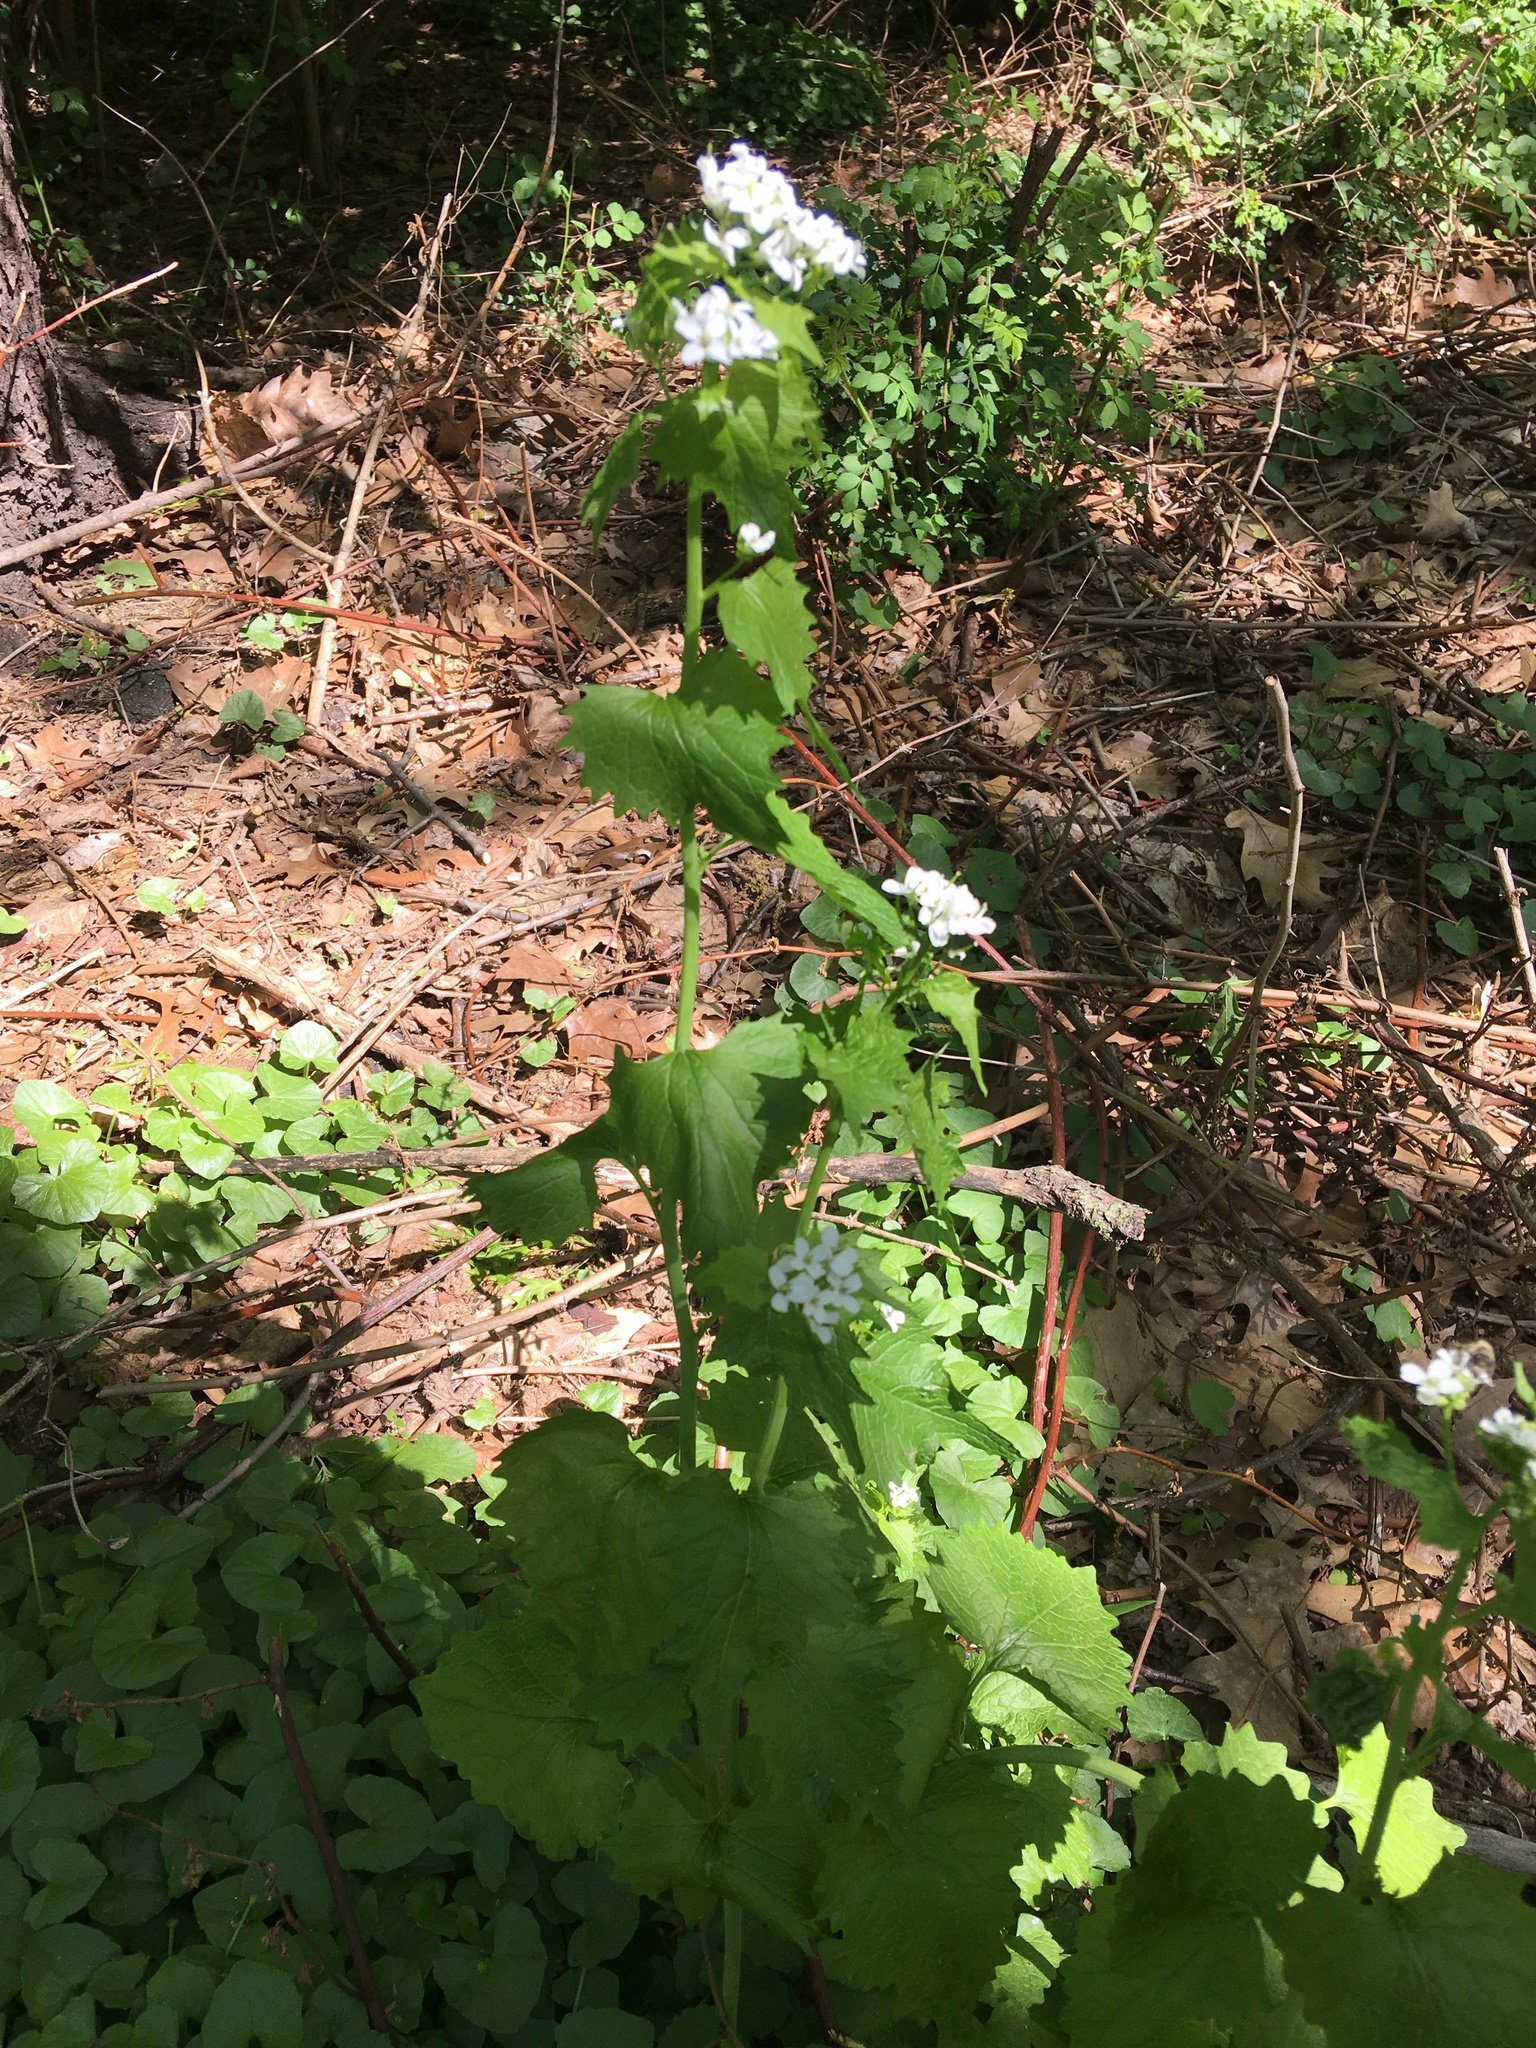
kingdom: Plantae
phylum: Tracheophyta
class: Magnoliopsida
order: Brassicales
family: Brassicaceae
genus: Alliaria
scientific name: Alliaria petiolata
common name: Garlic mustard
